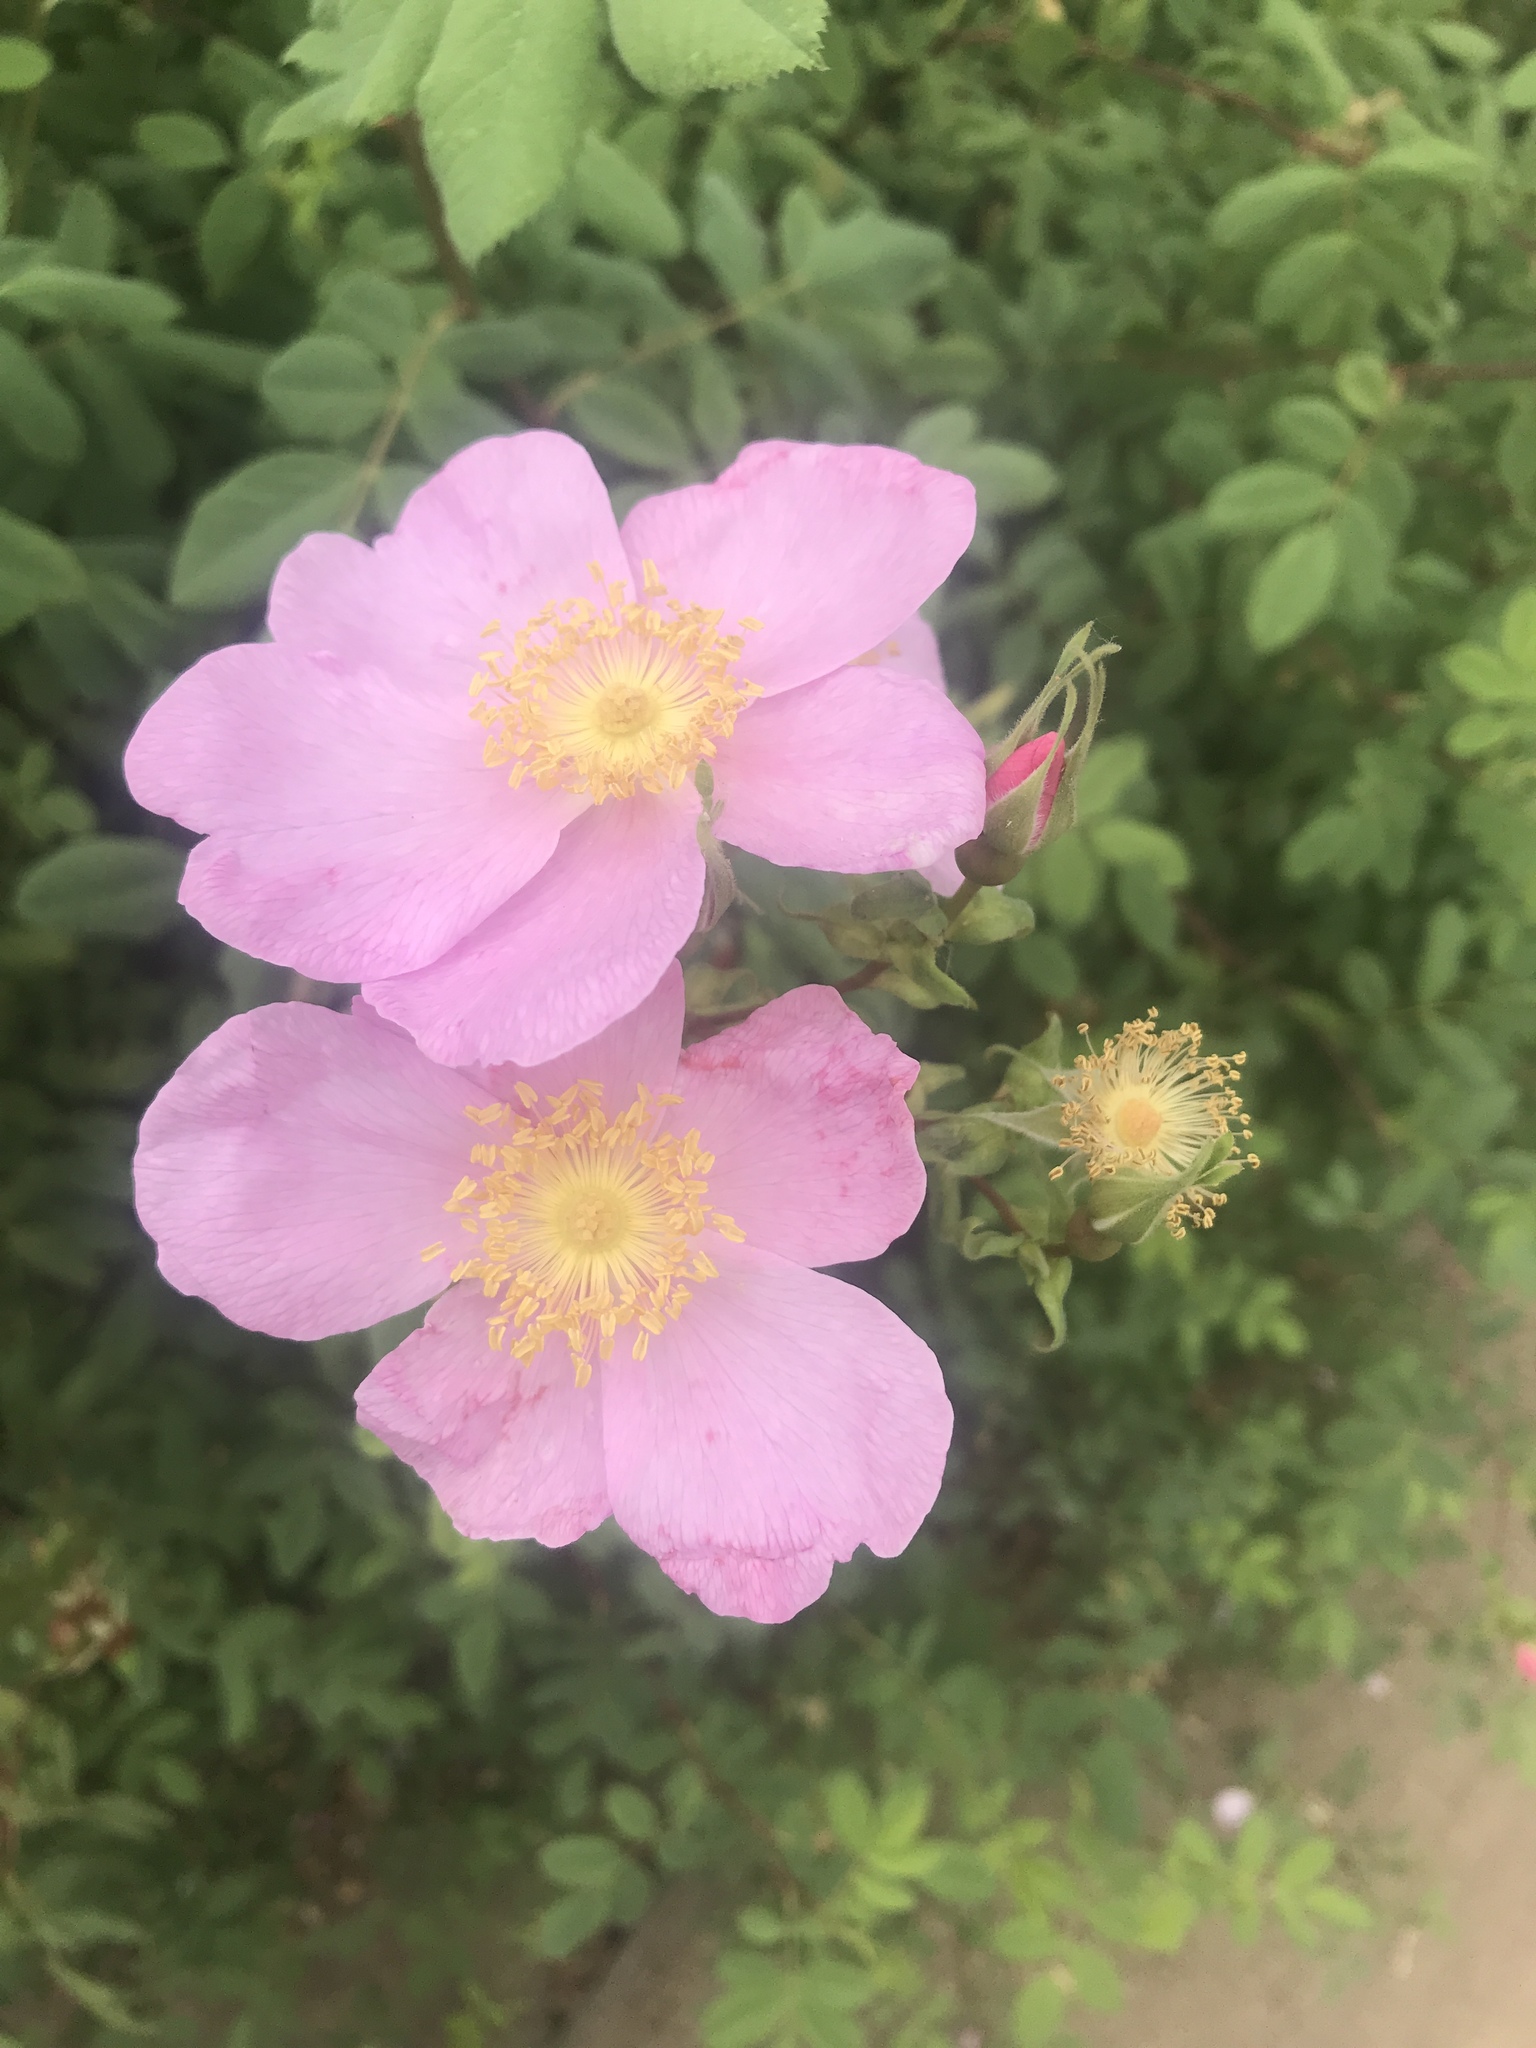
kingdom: Plantae
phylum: Tracheophyta
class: Magnoliopsida
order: Rosales
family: Rosaceae
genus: Rosa
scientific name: Rosa californica
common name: California rose
